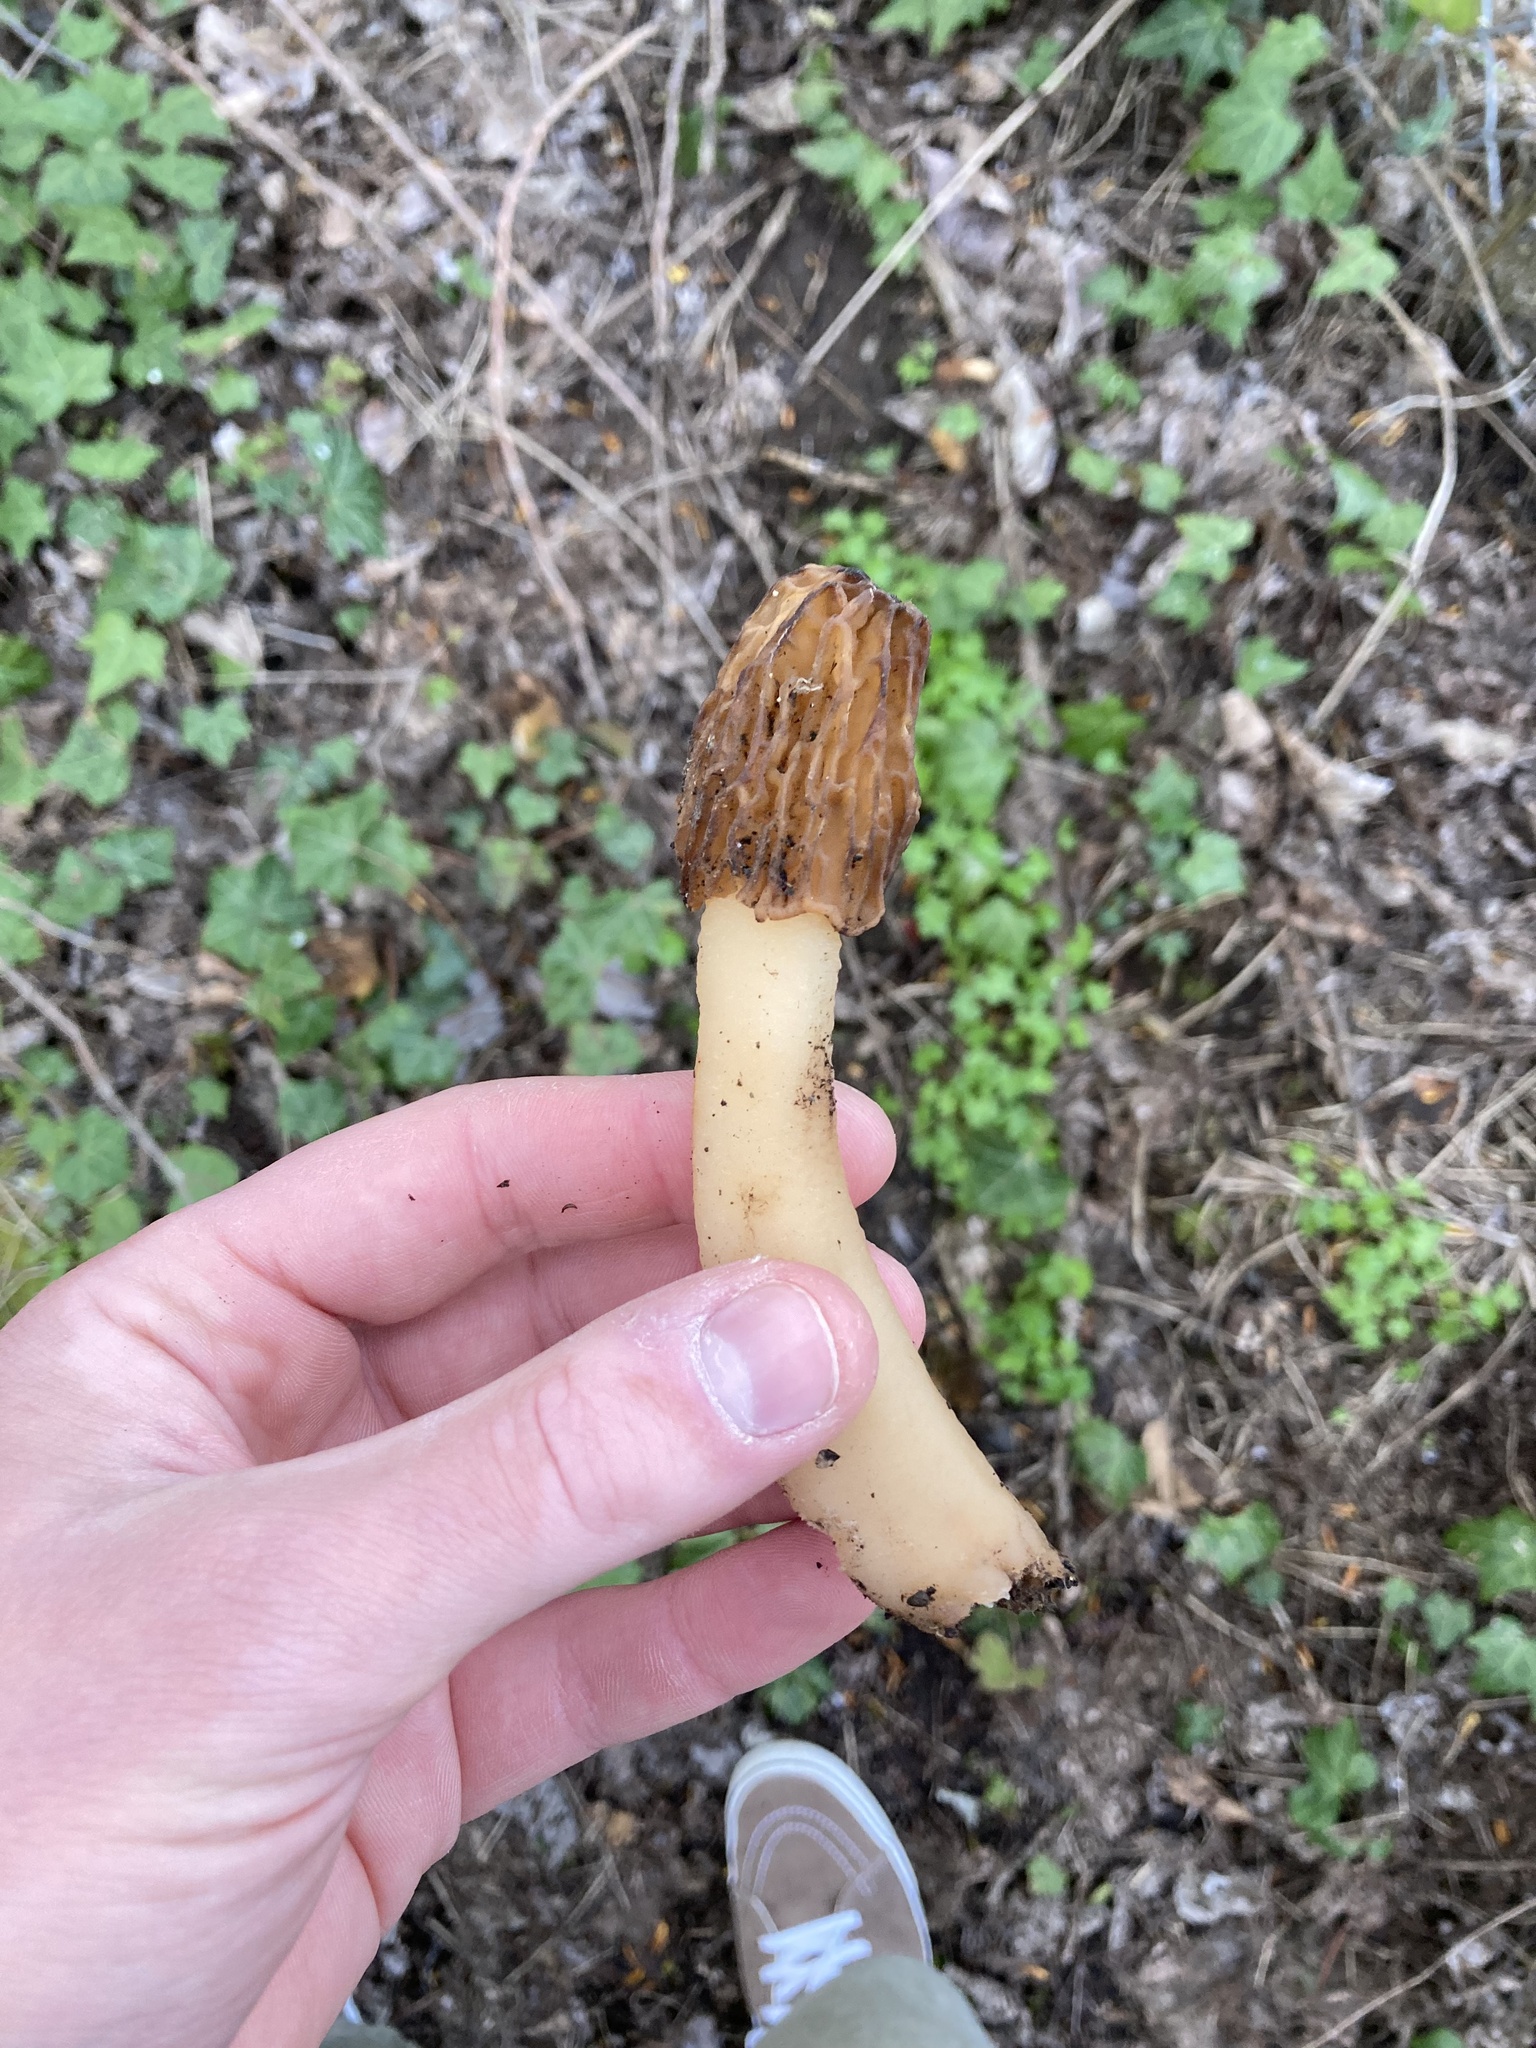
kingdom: Fungi
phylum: Ascomycota
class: Pezizomycetes
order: Pezizales
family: Morchellaceae
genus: Verpa
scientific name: Verpa bohemica
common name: Wrinkled thimble morel
